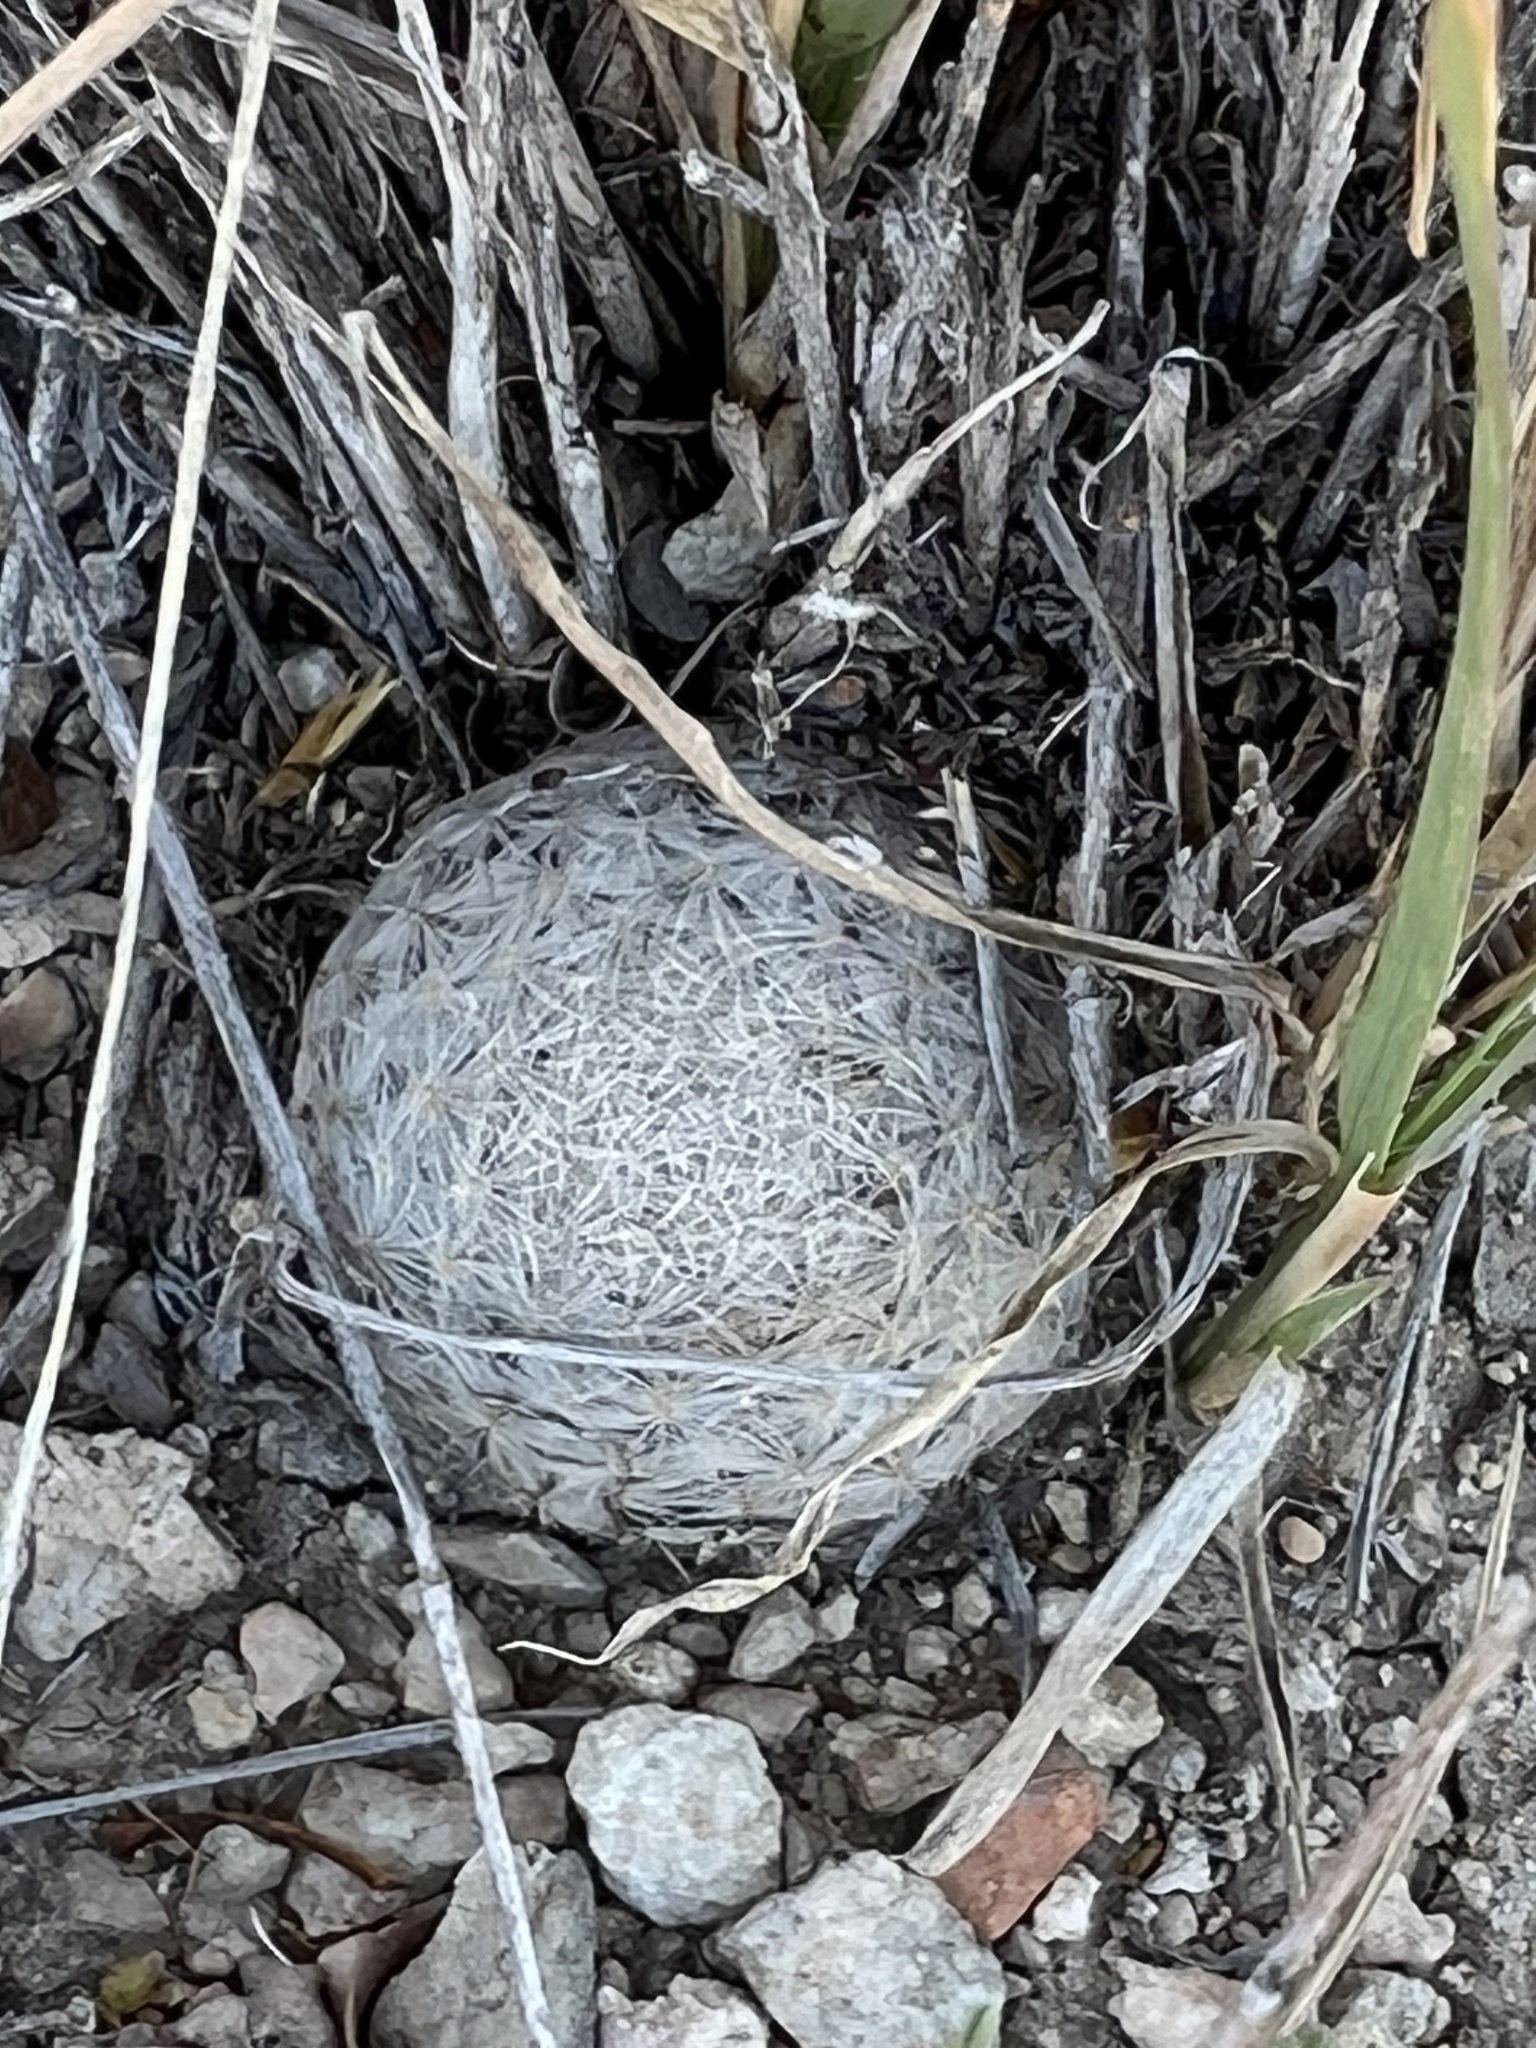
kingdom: Plantae
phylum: Tracheophyta
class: Magnoliopsida
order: Caryophyllales
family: Cactaceae
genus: Mammillaria
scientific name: Mammillaria lasiacantha
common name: Lace-spine nipple cactus
